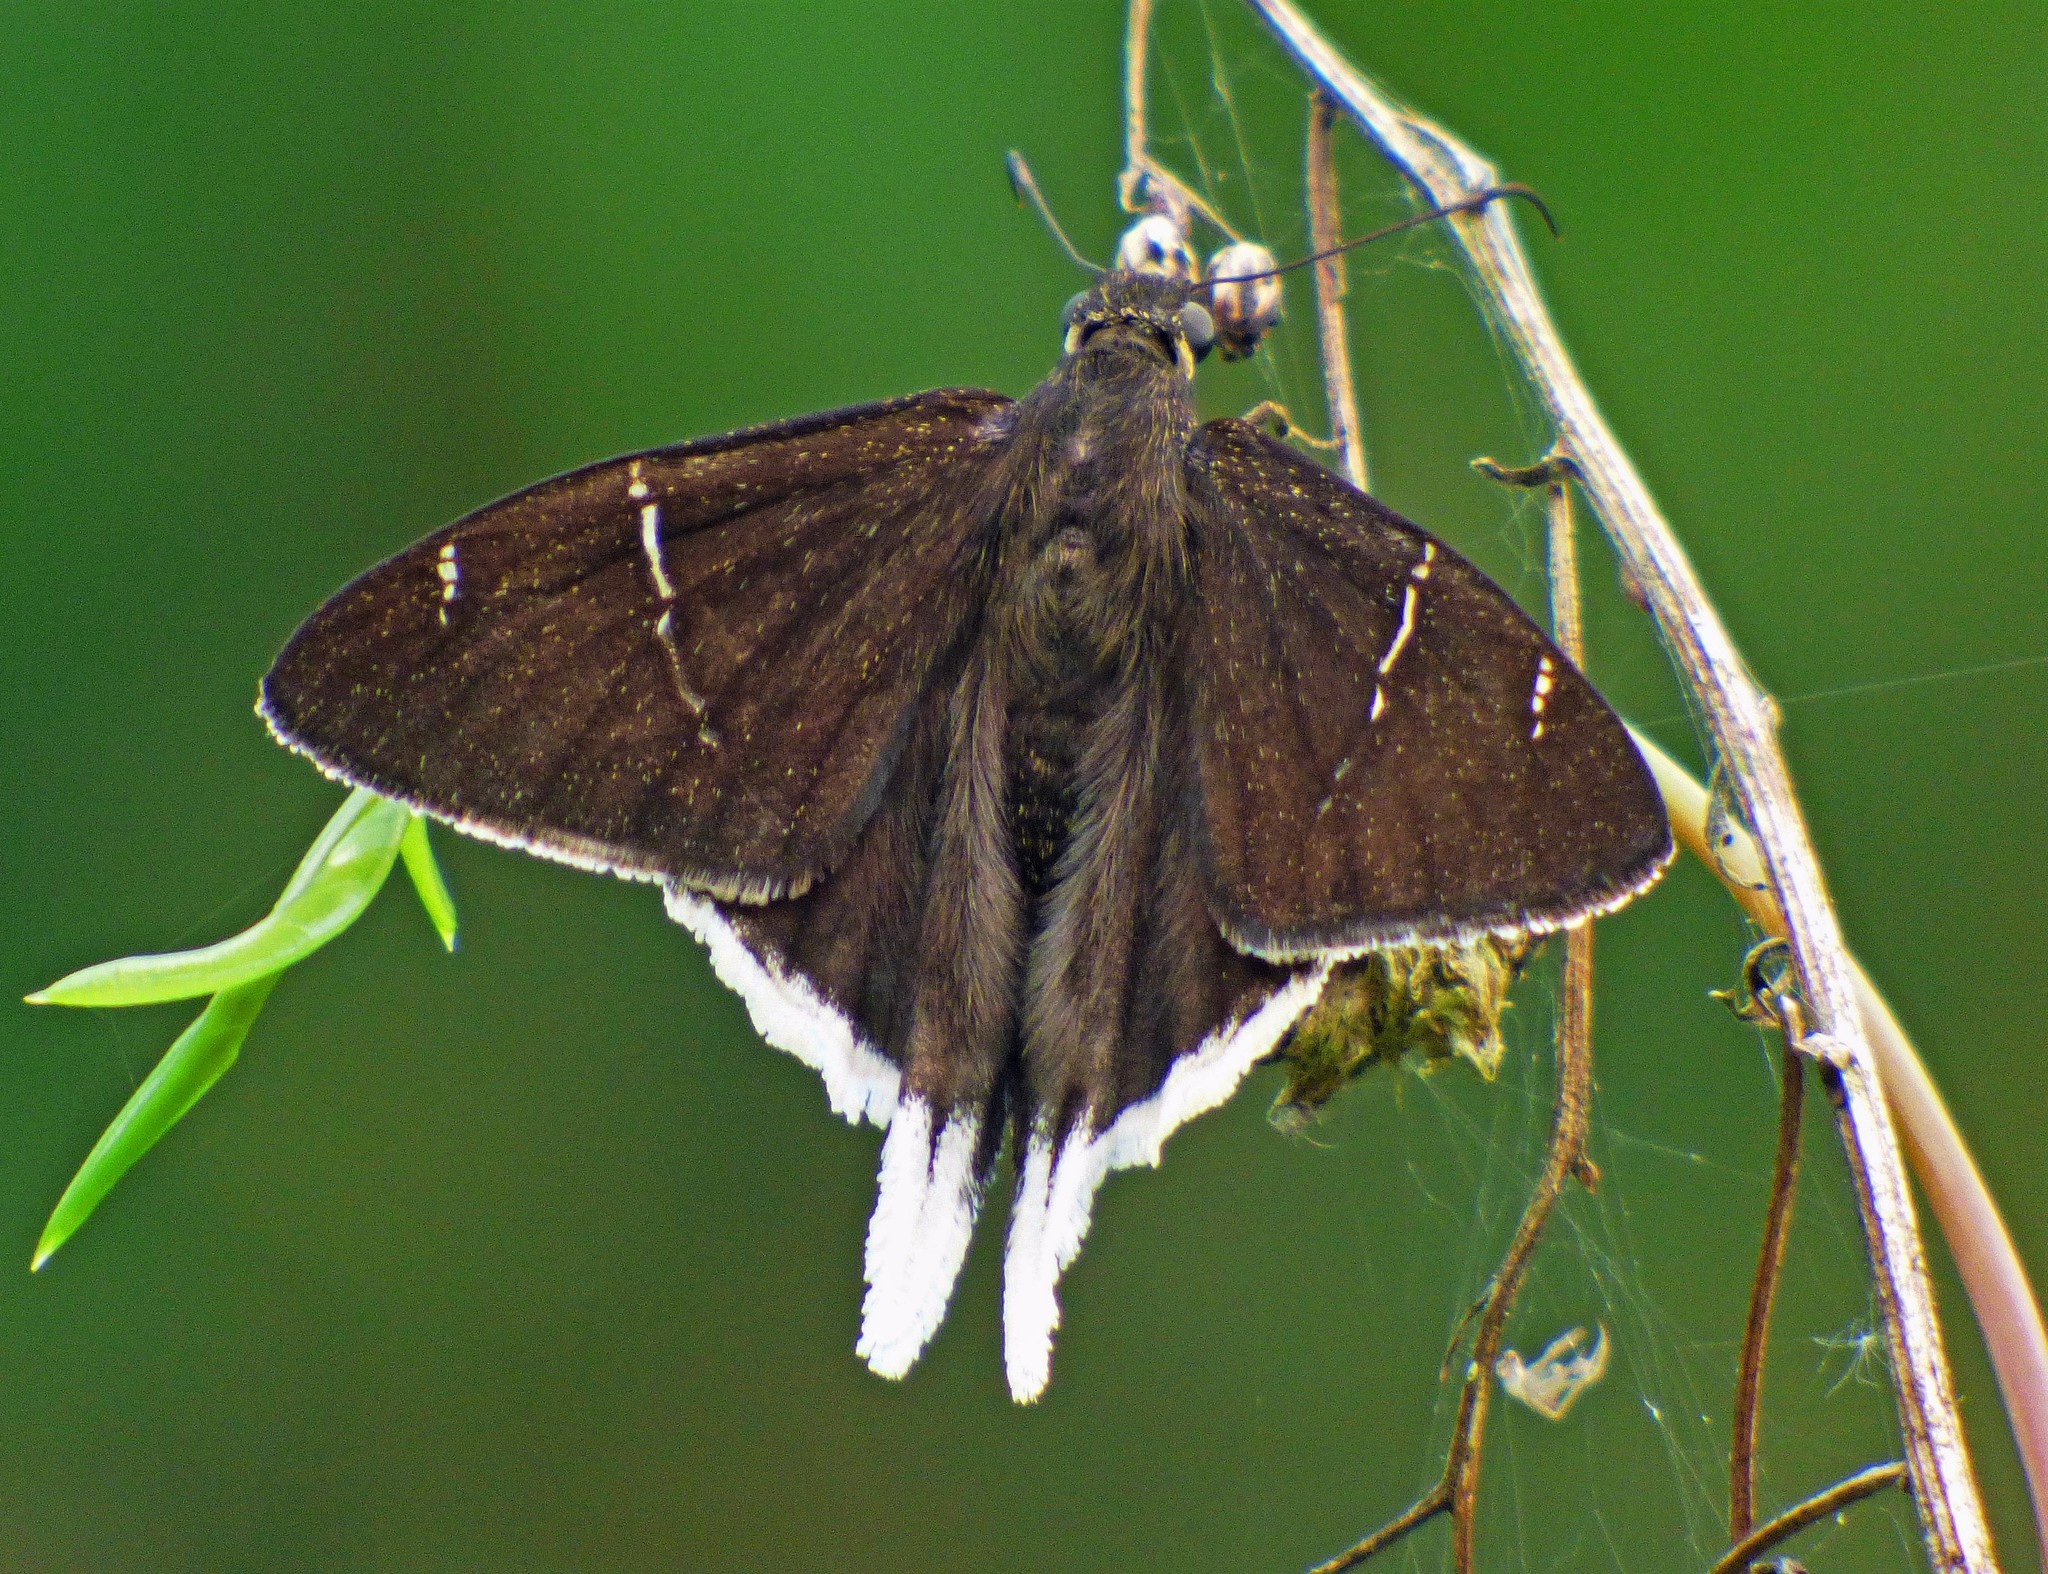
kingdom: Animalia
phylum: Arthropoda
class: Insecta
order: Lepidoptera
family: Hesperiidae
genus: Achalarus
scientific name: Achalarus
